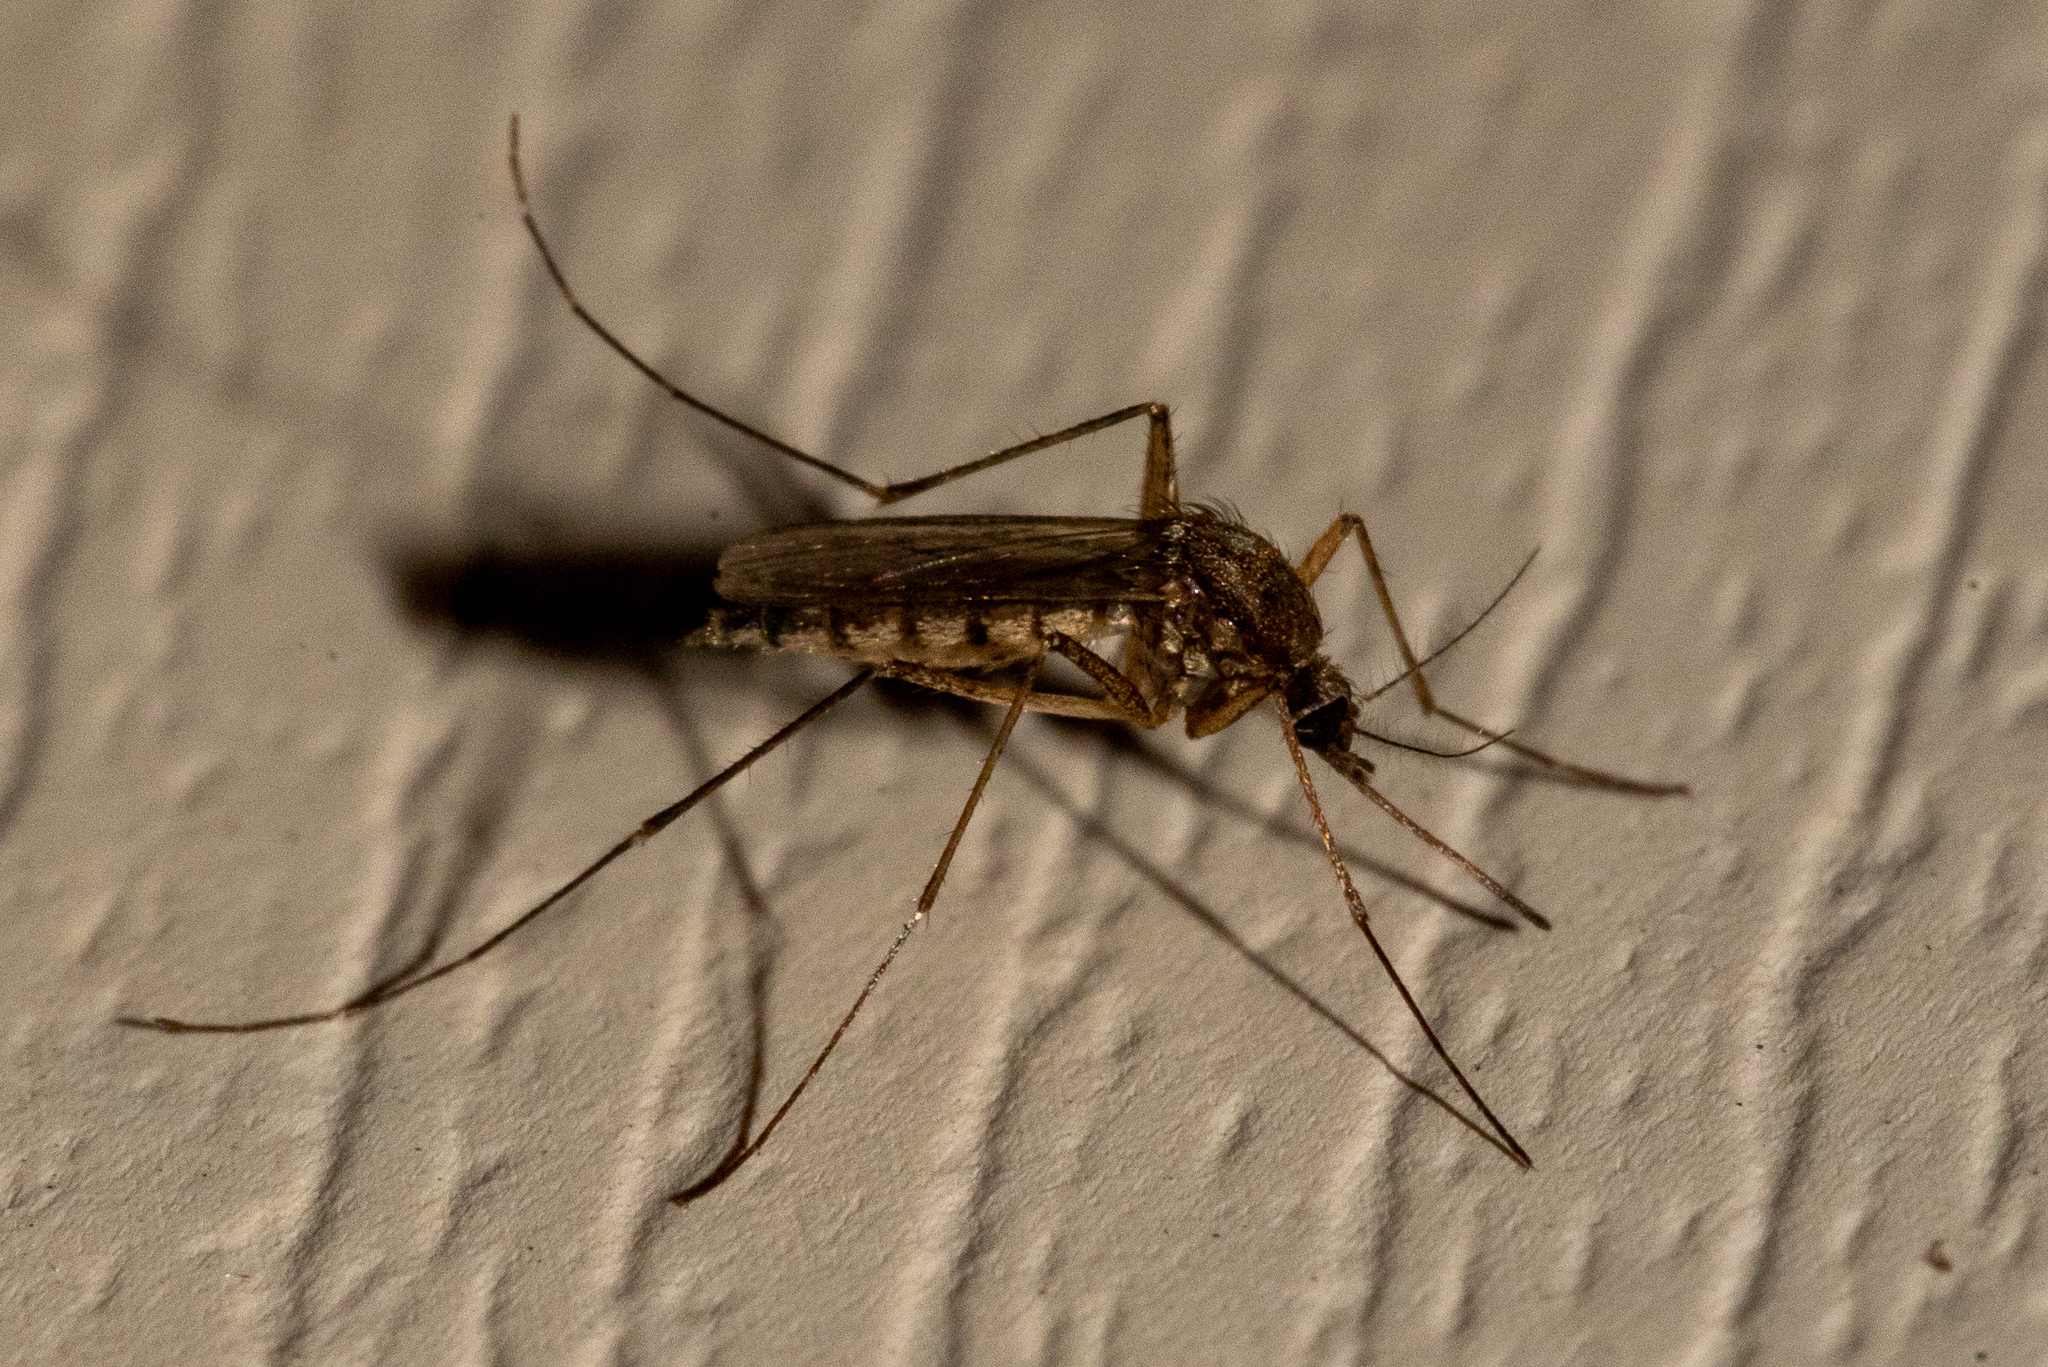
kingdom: Animalia
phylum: Arthropoda
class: Insecta
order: Diptera
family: Culicidae
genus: Aedes
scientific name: Aedes vexans
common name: Inland floodwater mosquito
